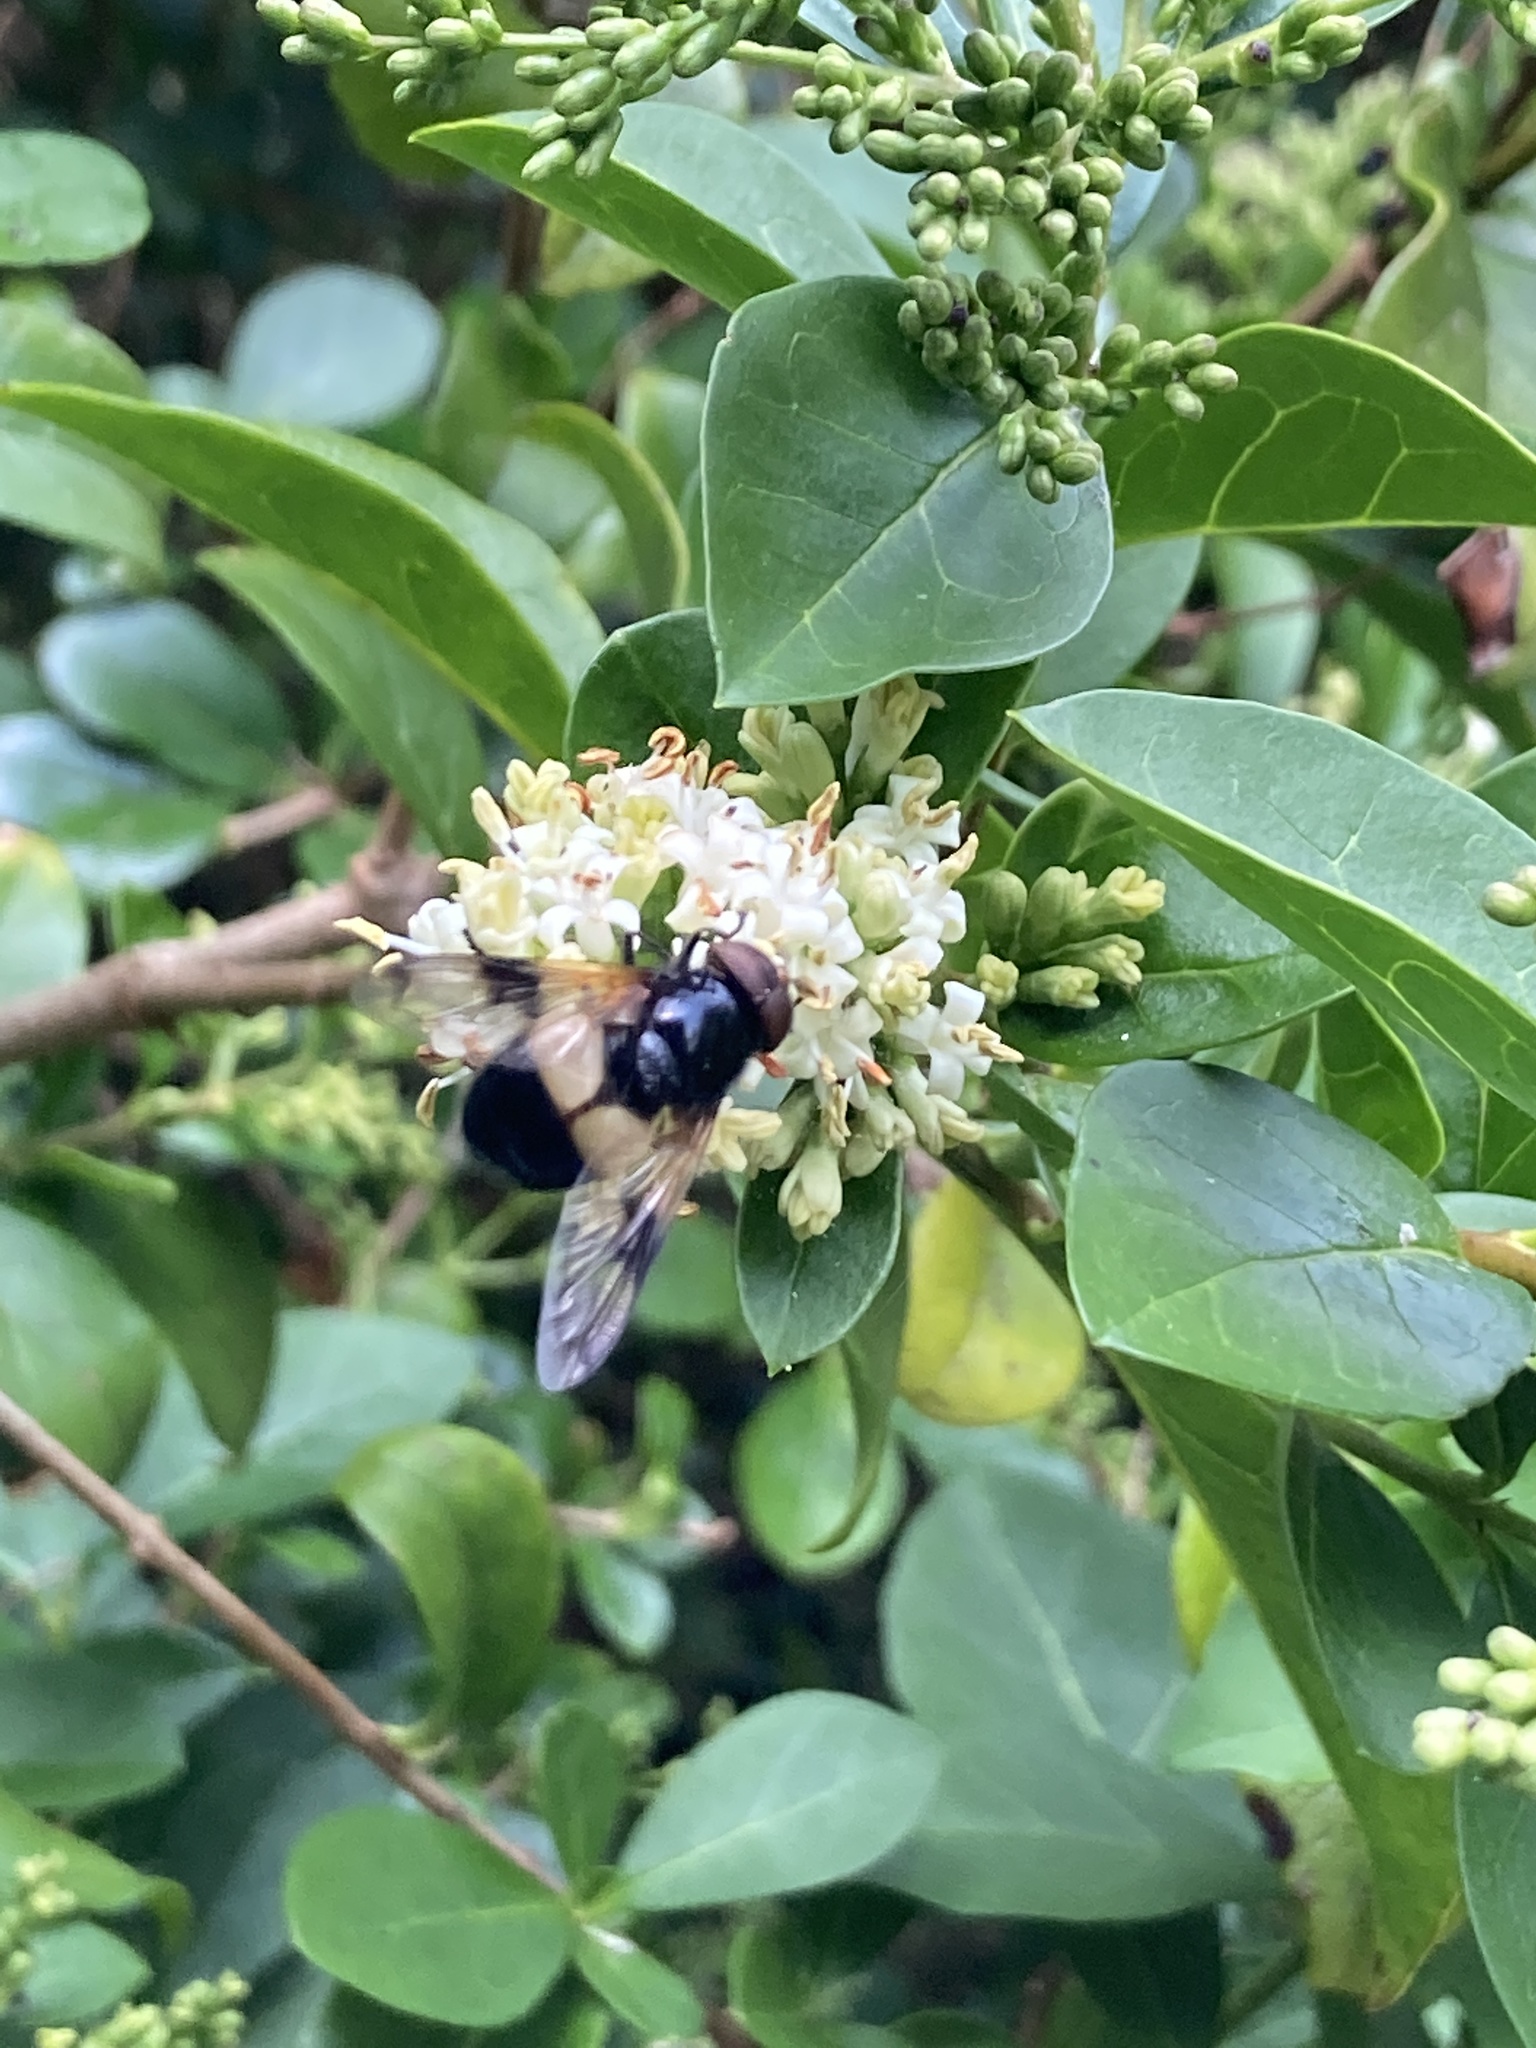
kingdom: Animalia
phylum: Arthropoda
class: Insecta
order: Diptera
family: Syrphidae
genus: Volucella
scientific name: Volucella pellucens
